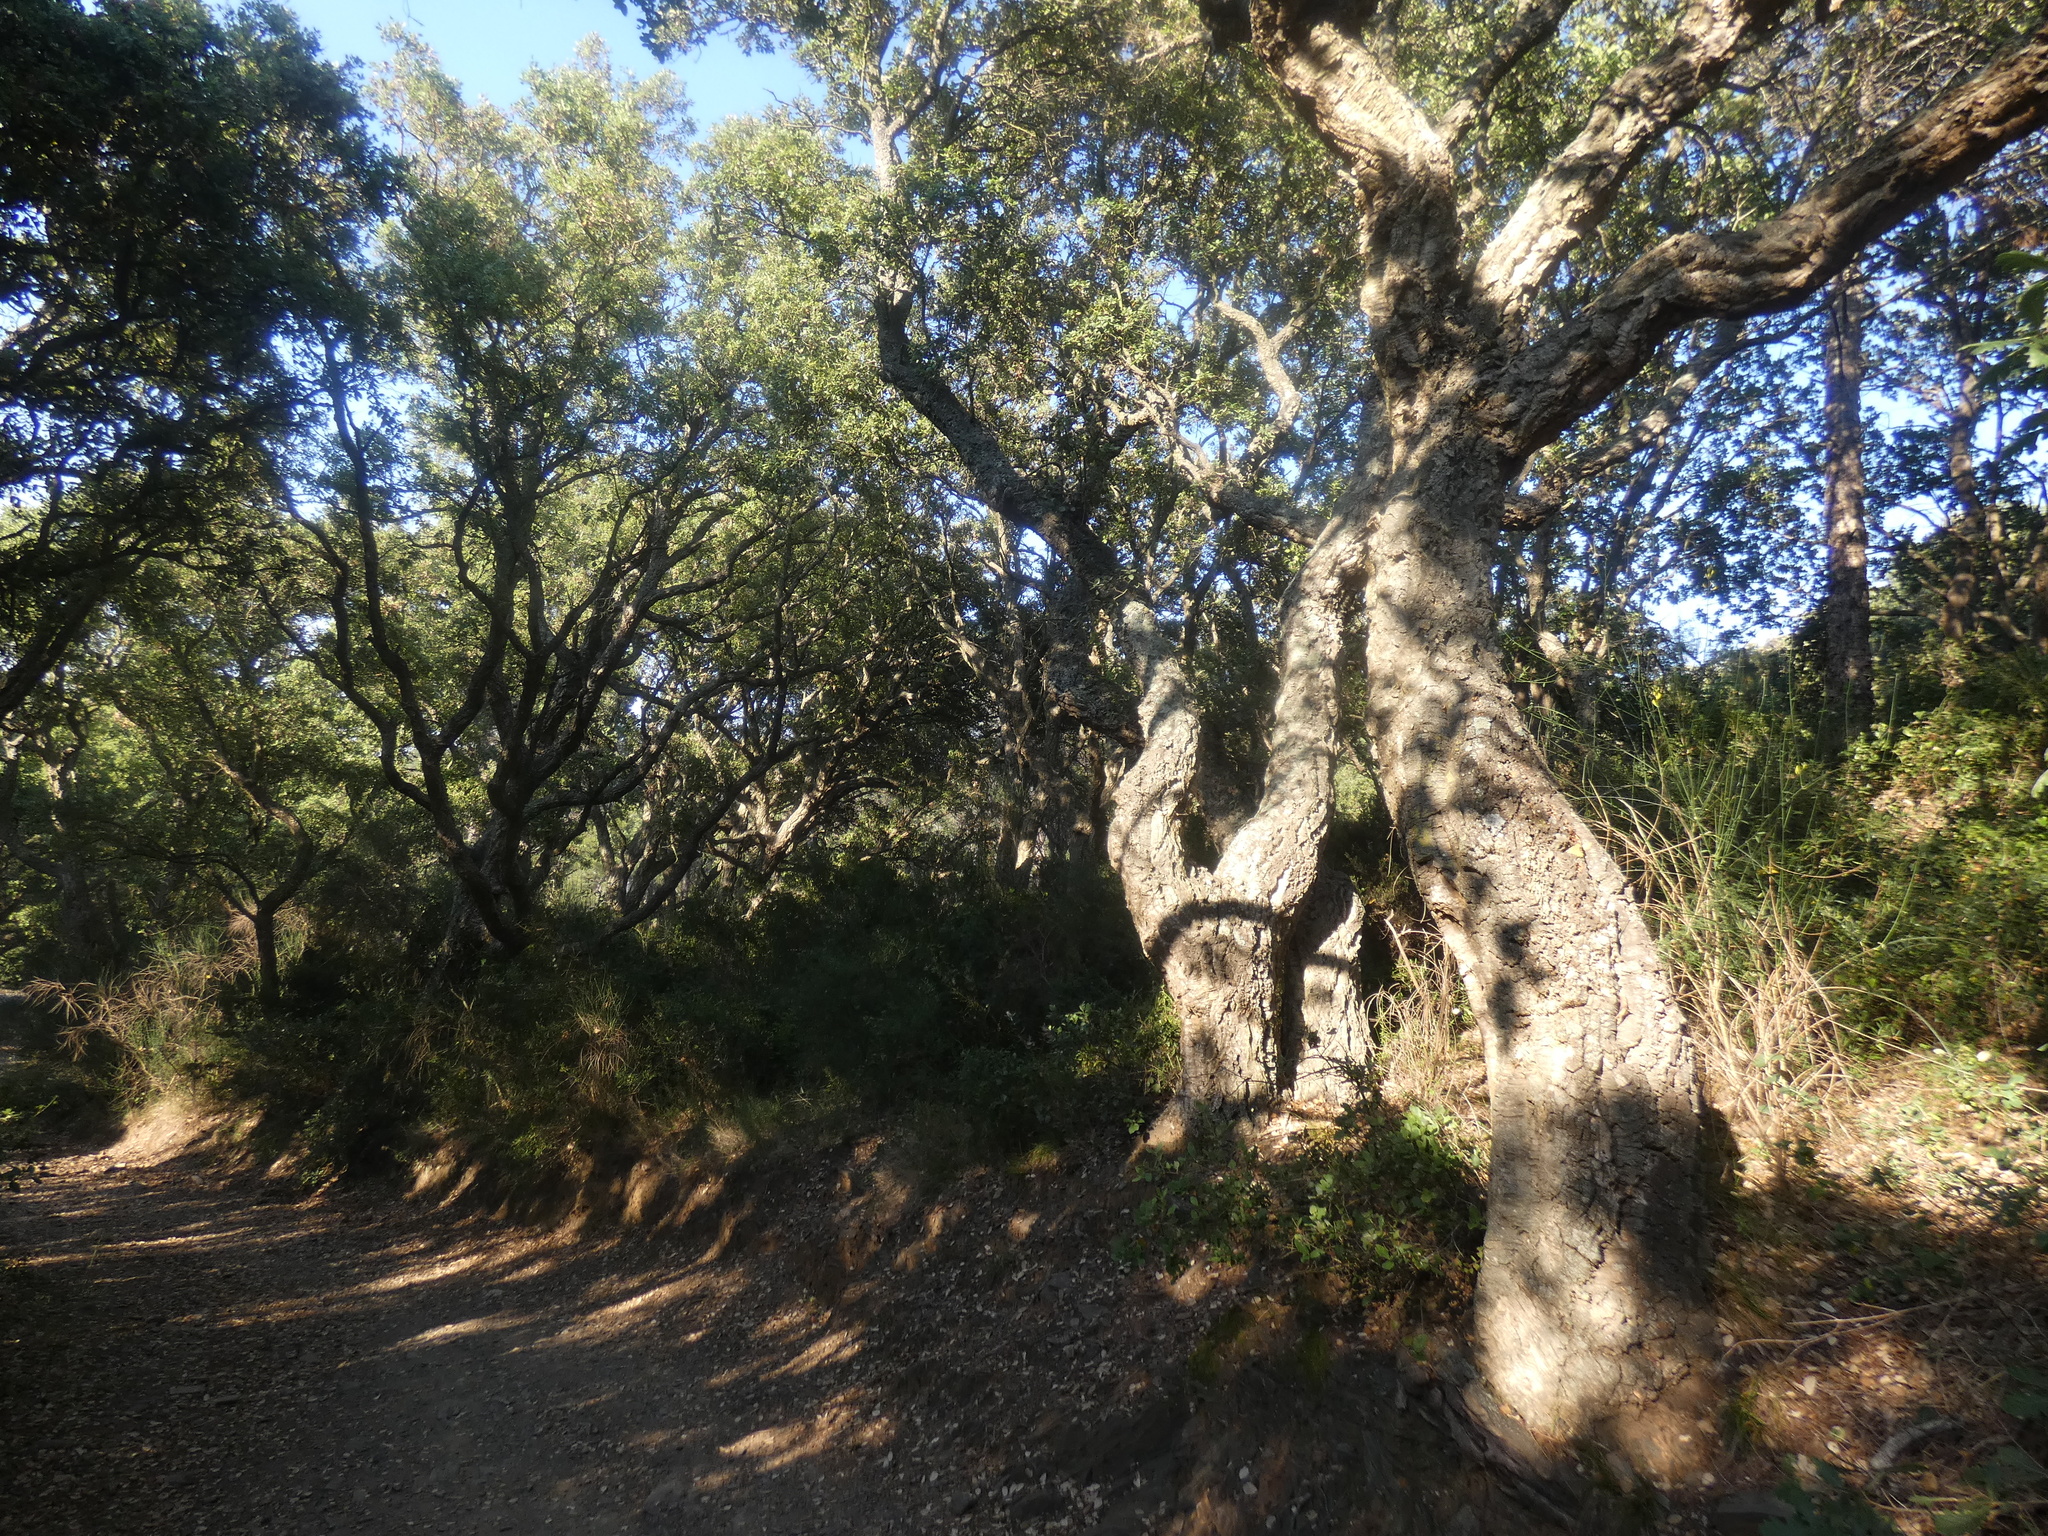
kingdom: Plantae
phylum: Tracheophyta
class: Magnoliopsida
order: Fagales
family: Fagaceae
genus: Quercus
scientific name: Quercus suber
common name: Cork oak
